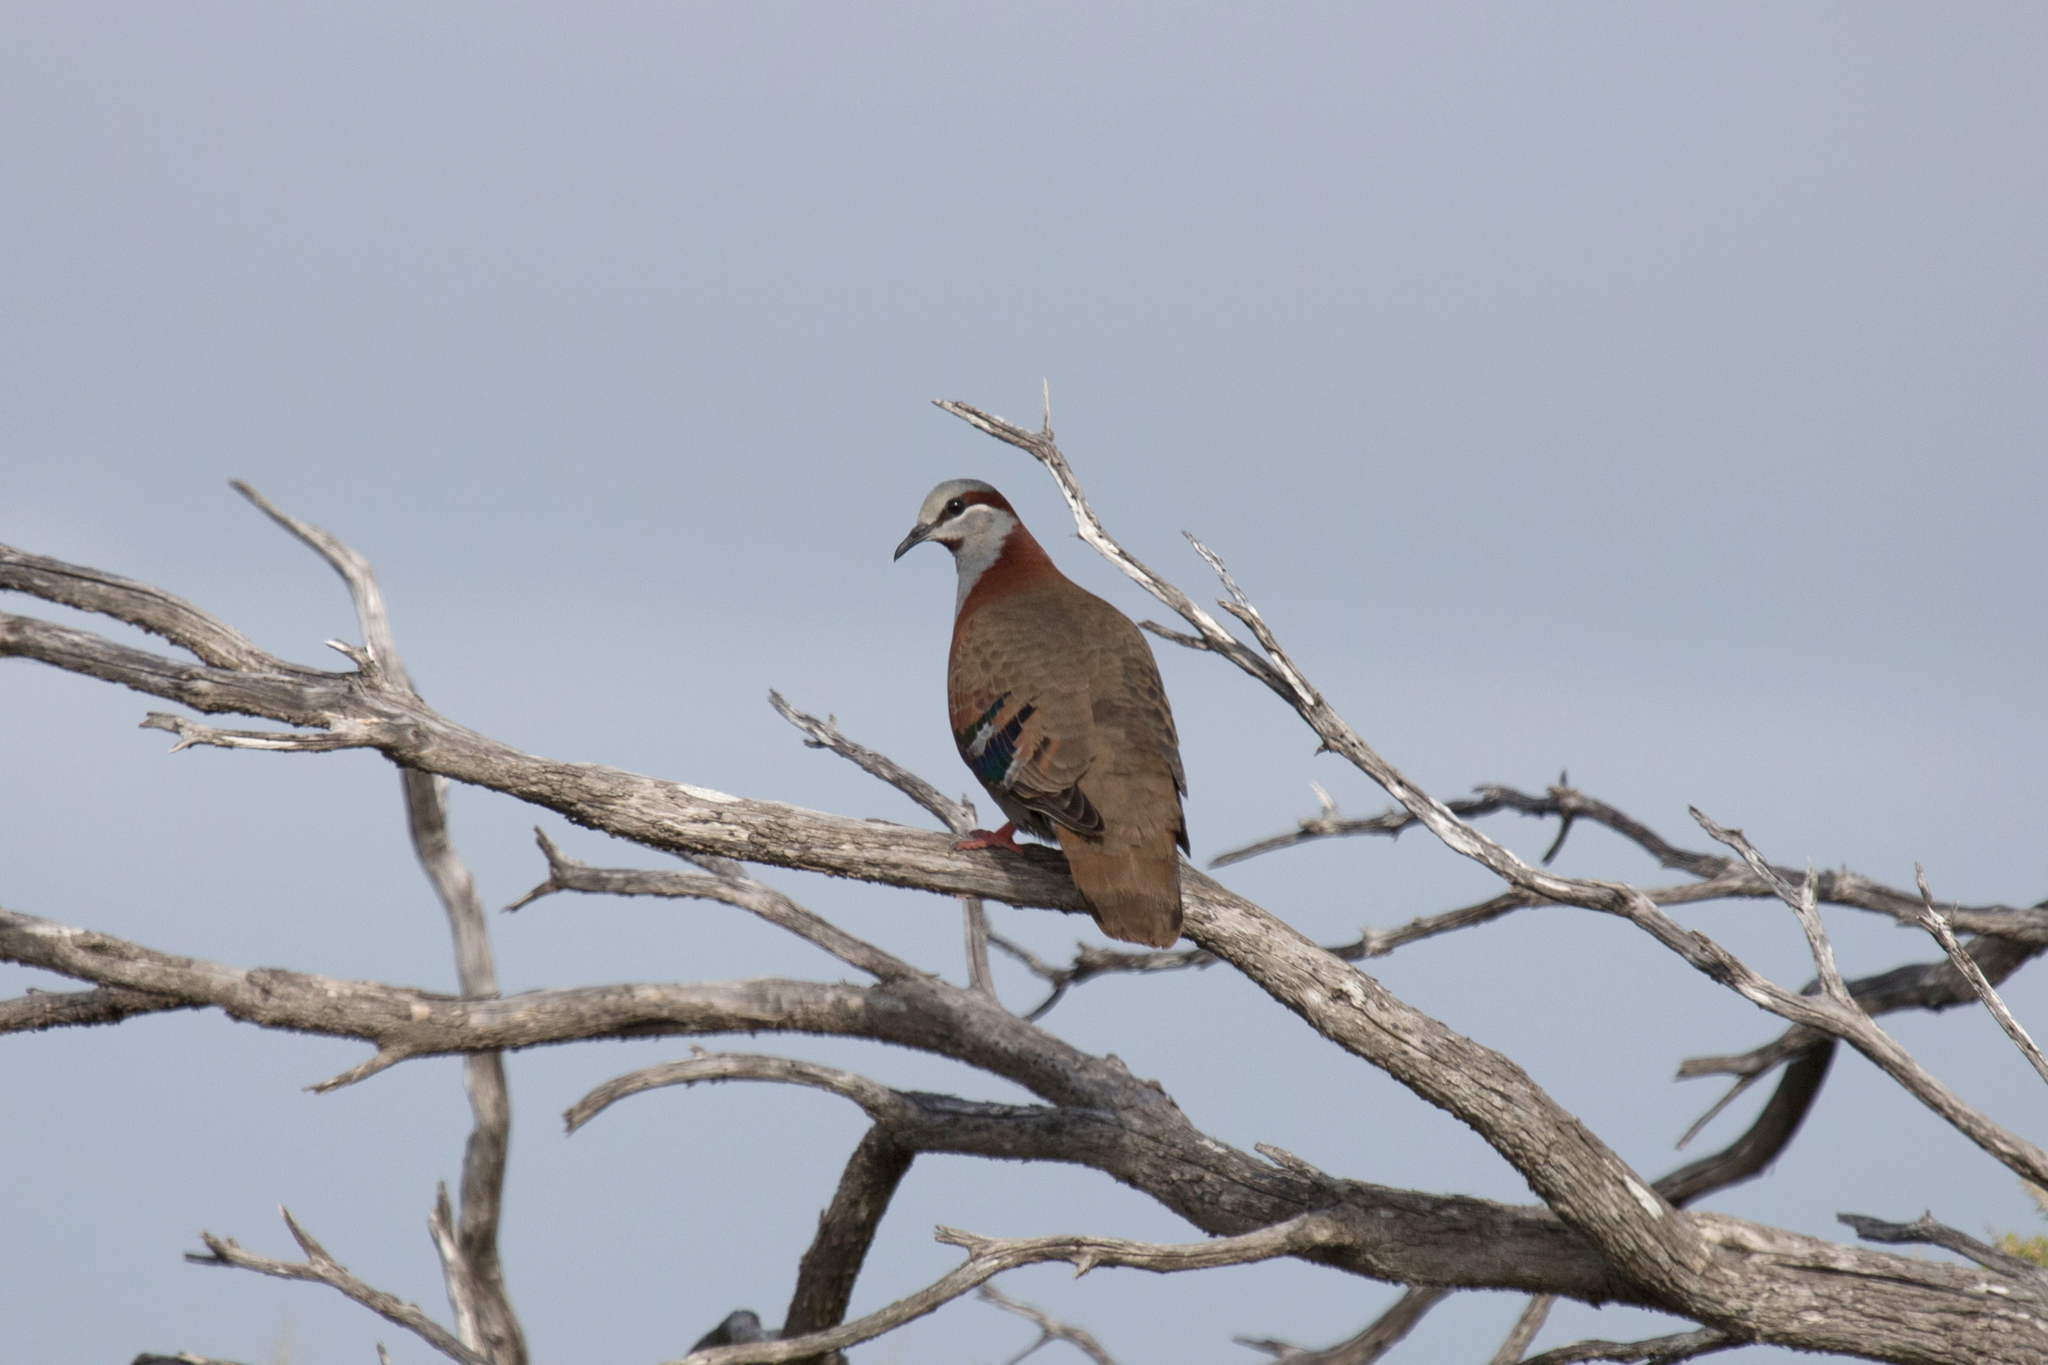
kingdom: Animalia
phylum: Chordata
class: Aves
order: Columbiformes
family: Columbidae
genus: Phaps
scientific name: Phaps elegans
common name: Brush bronzewing
